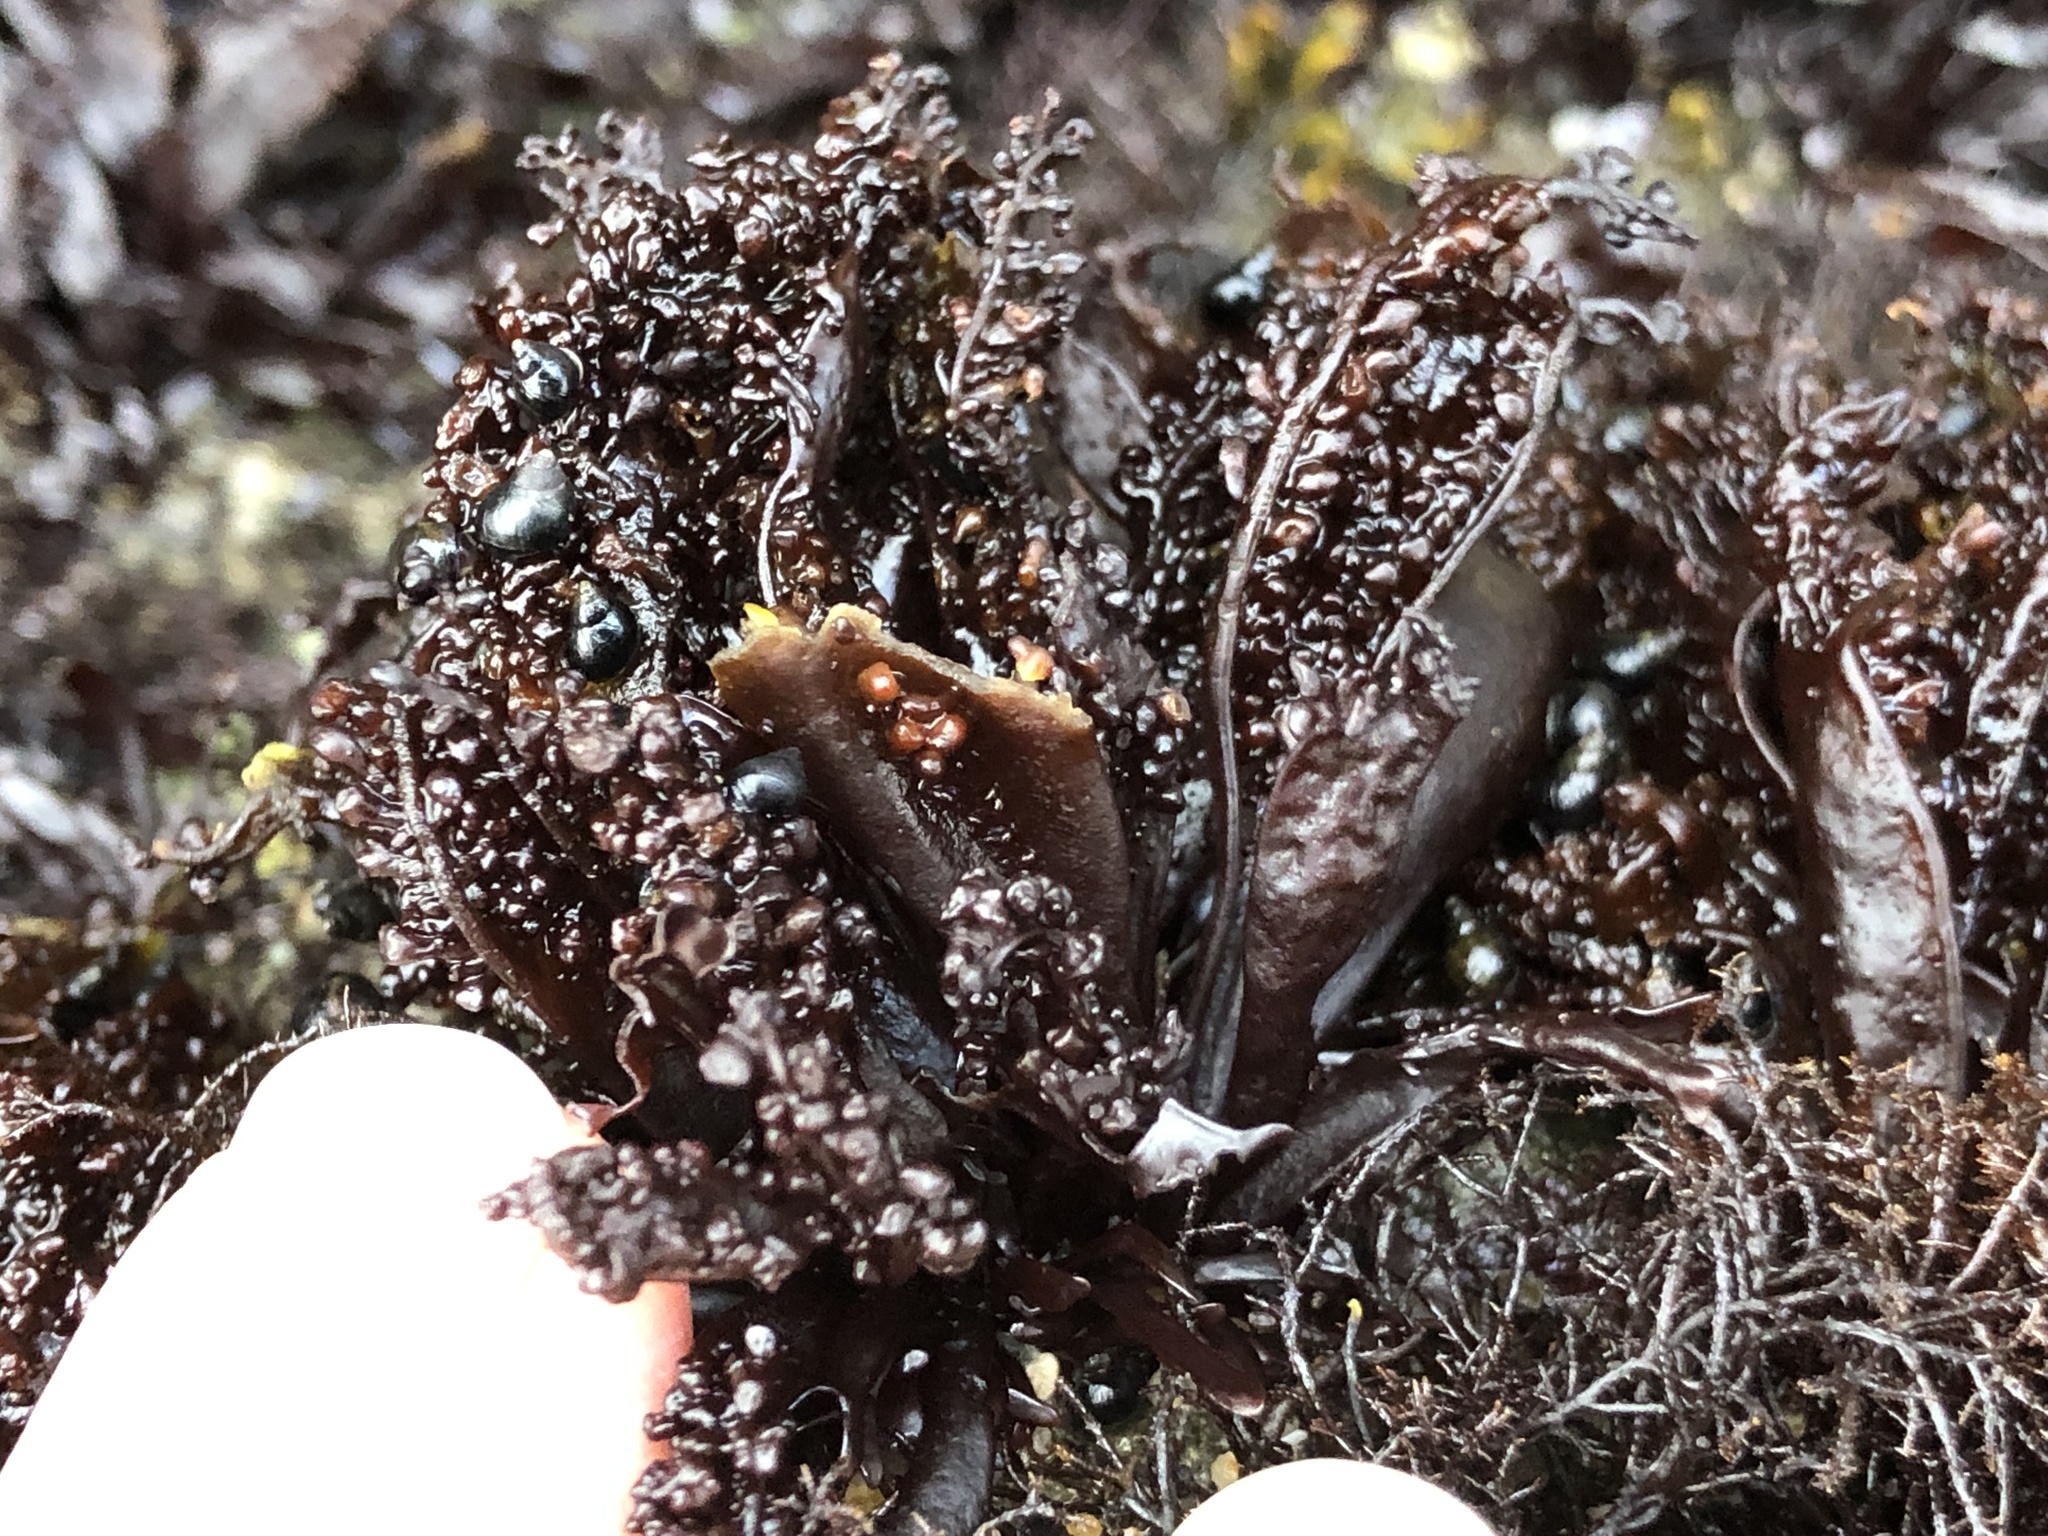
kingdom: Plantae
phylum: Rhodophyta
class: Florideophyceae
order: Gigartinales
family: Phyllophoraceae
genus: Mastocarpus
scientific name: Mastocarpus papillatus
